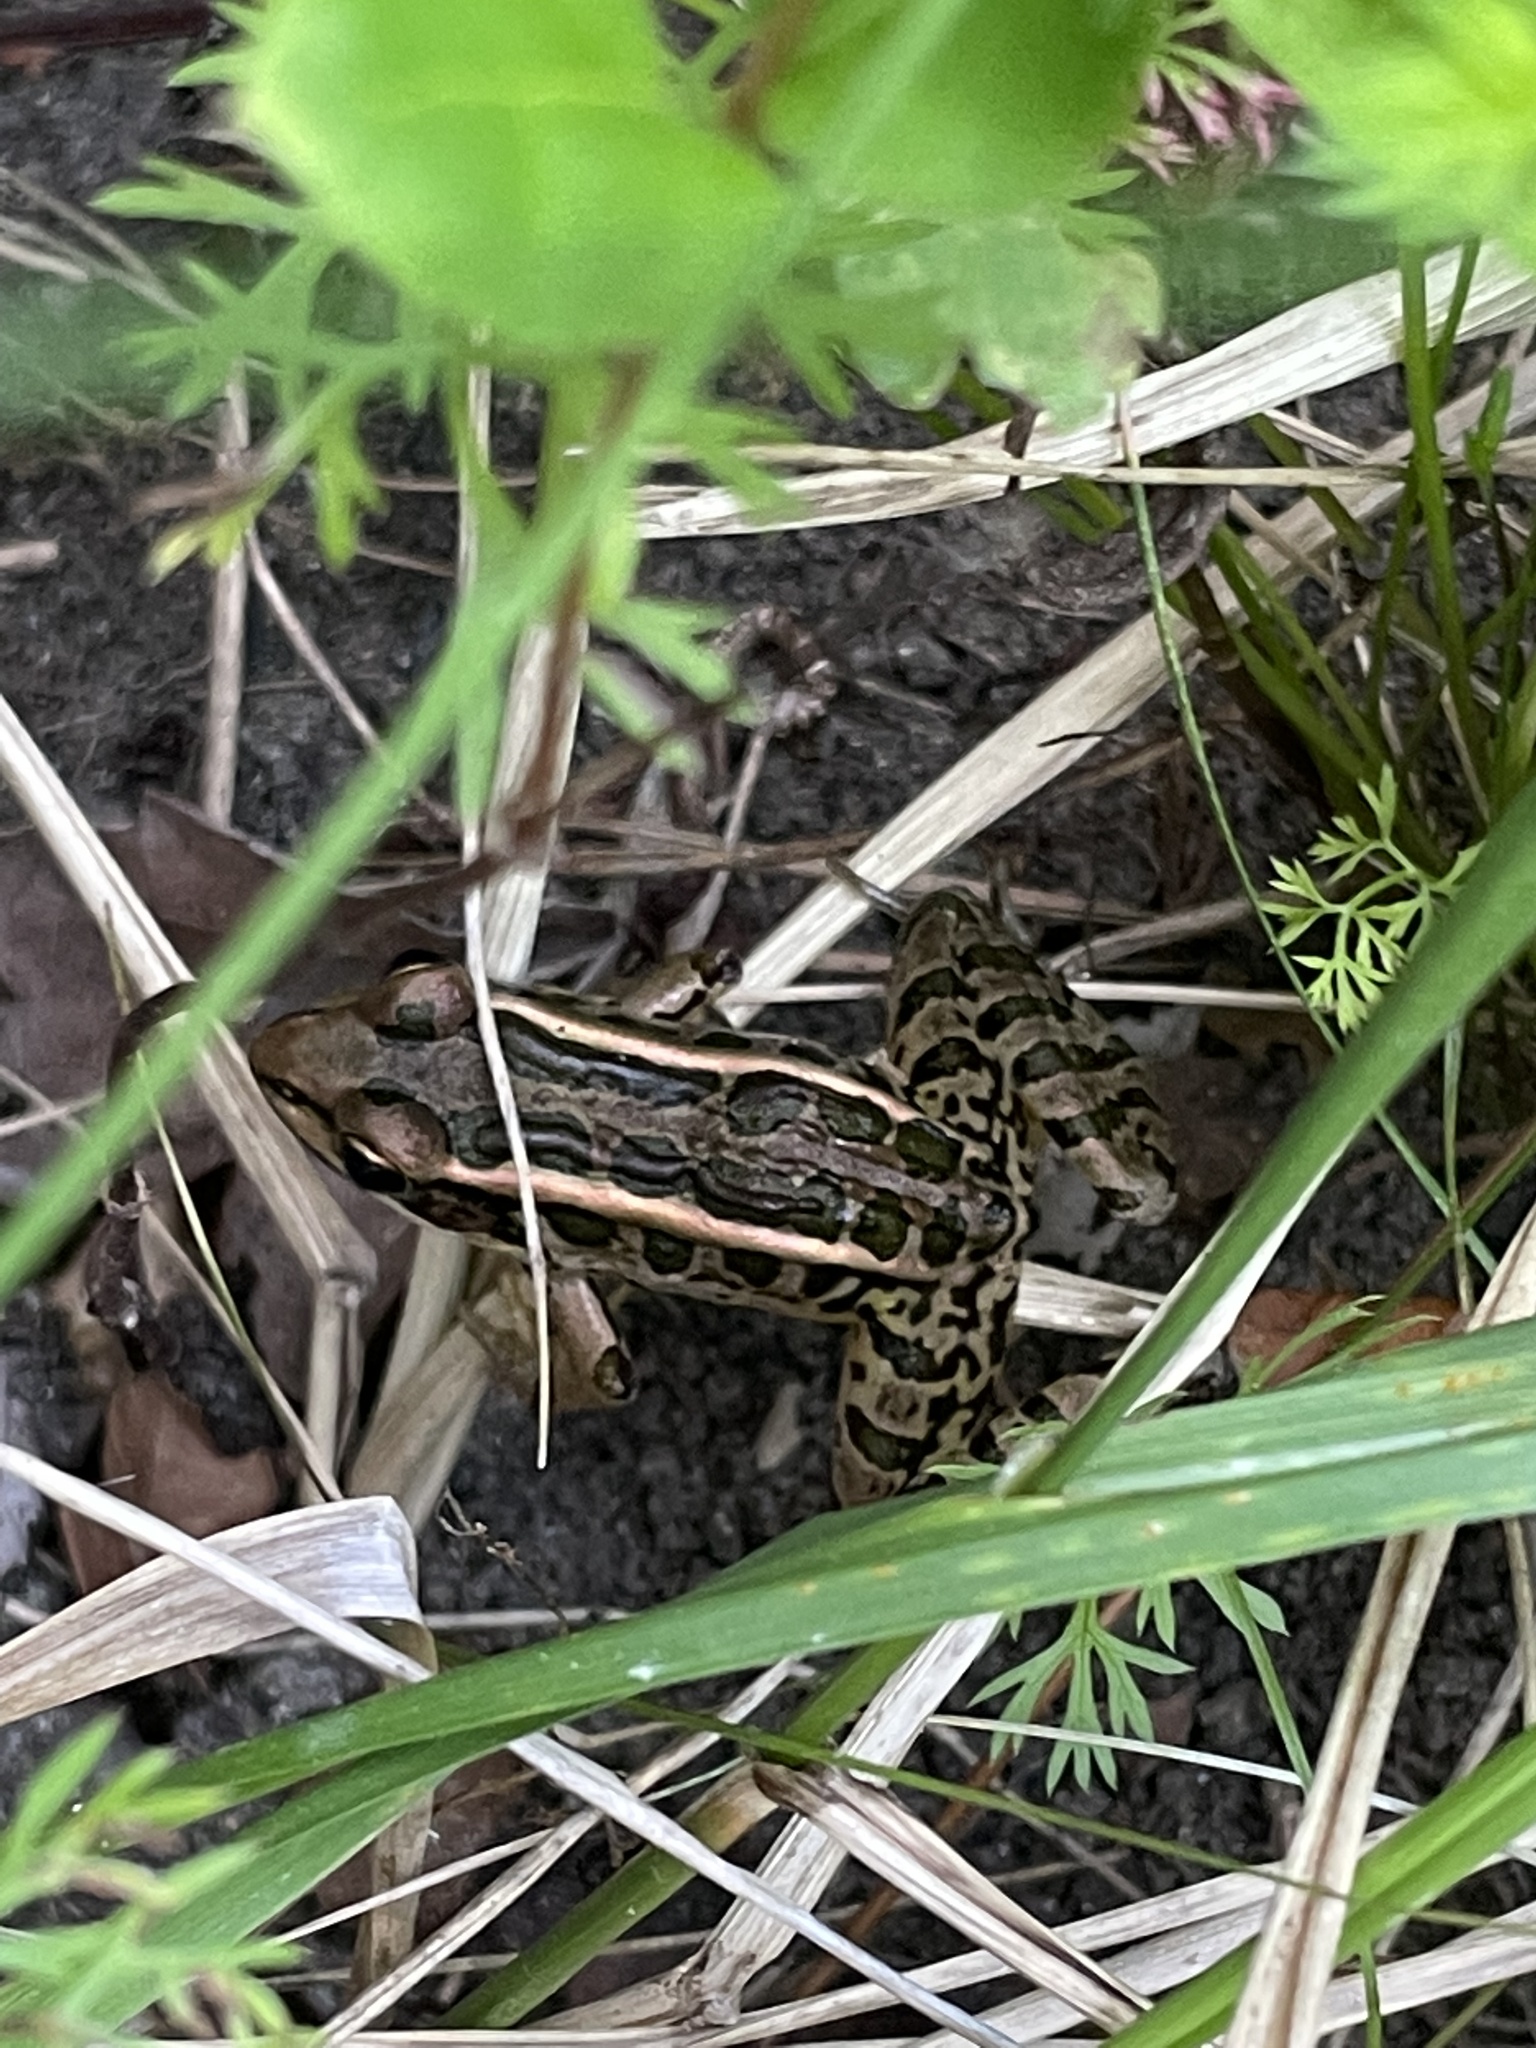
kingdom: Animalia
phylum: Chordata
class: Amphibia
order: Anura
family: Ranidae
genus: Lithobates
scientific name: Lithobates palustris
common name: Pickerel frog
